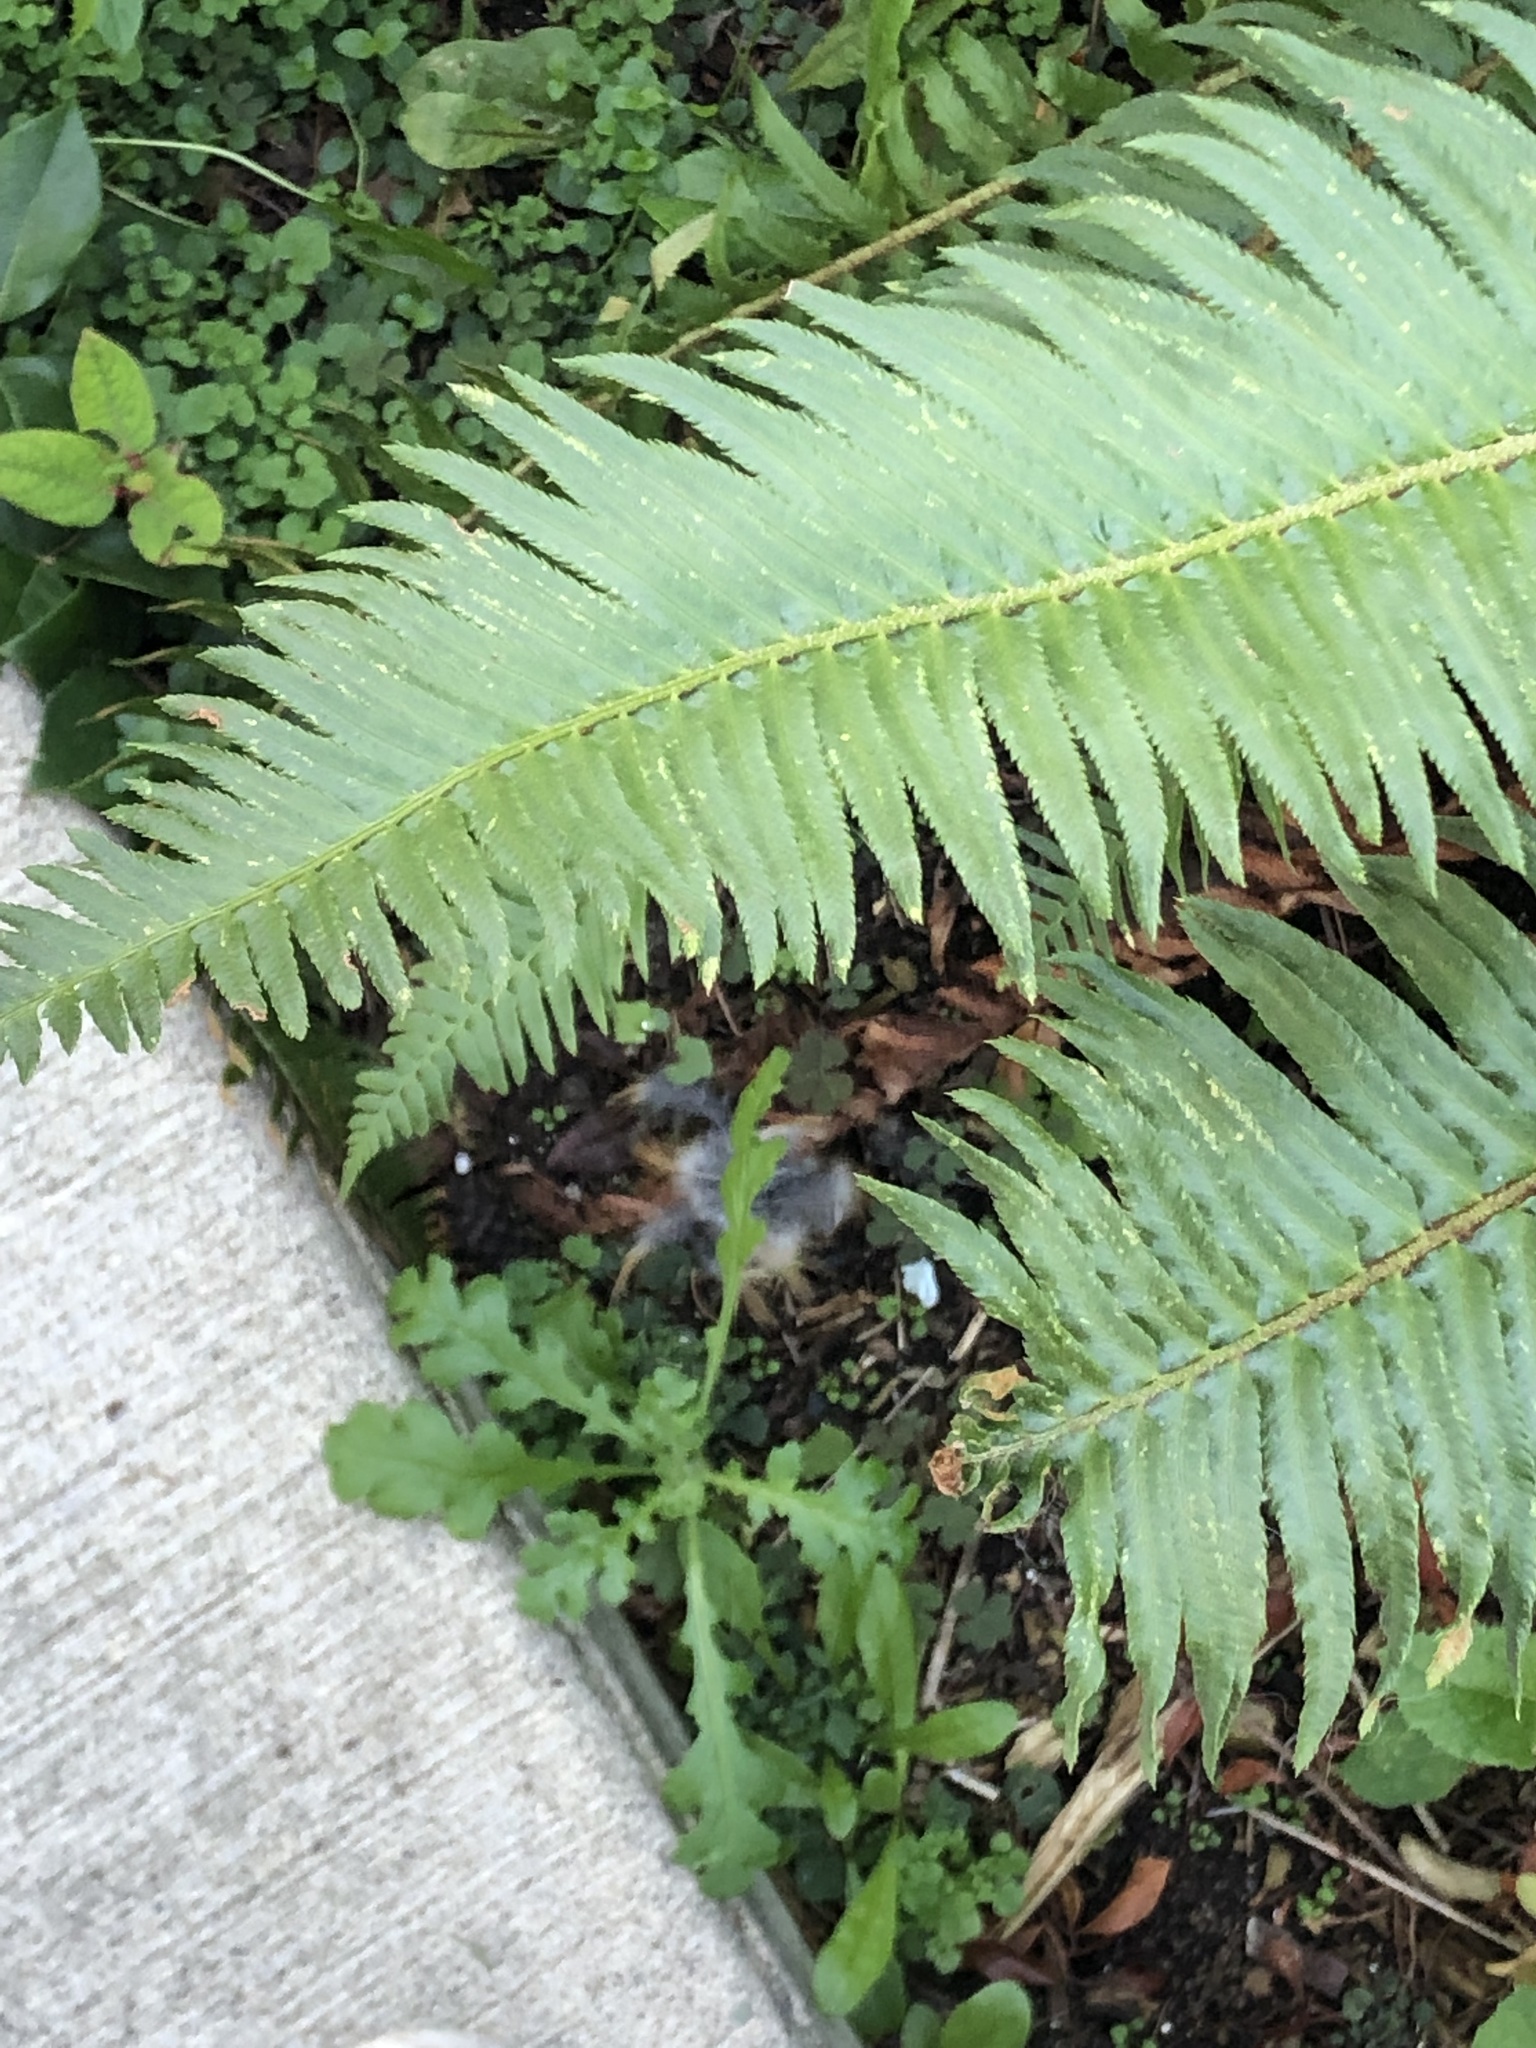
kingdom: Plantae
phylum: Tracheophyta
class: Polypodiopsida
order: Polypodiales
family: Dryopteridaceae
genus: Polystichum
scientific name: Polystichum munitum
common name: Western sword-fern
